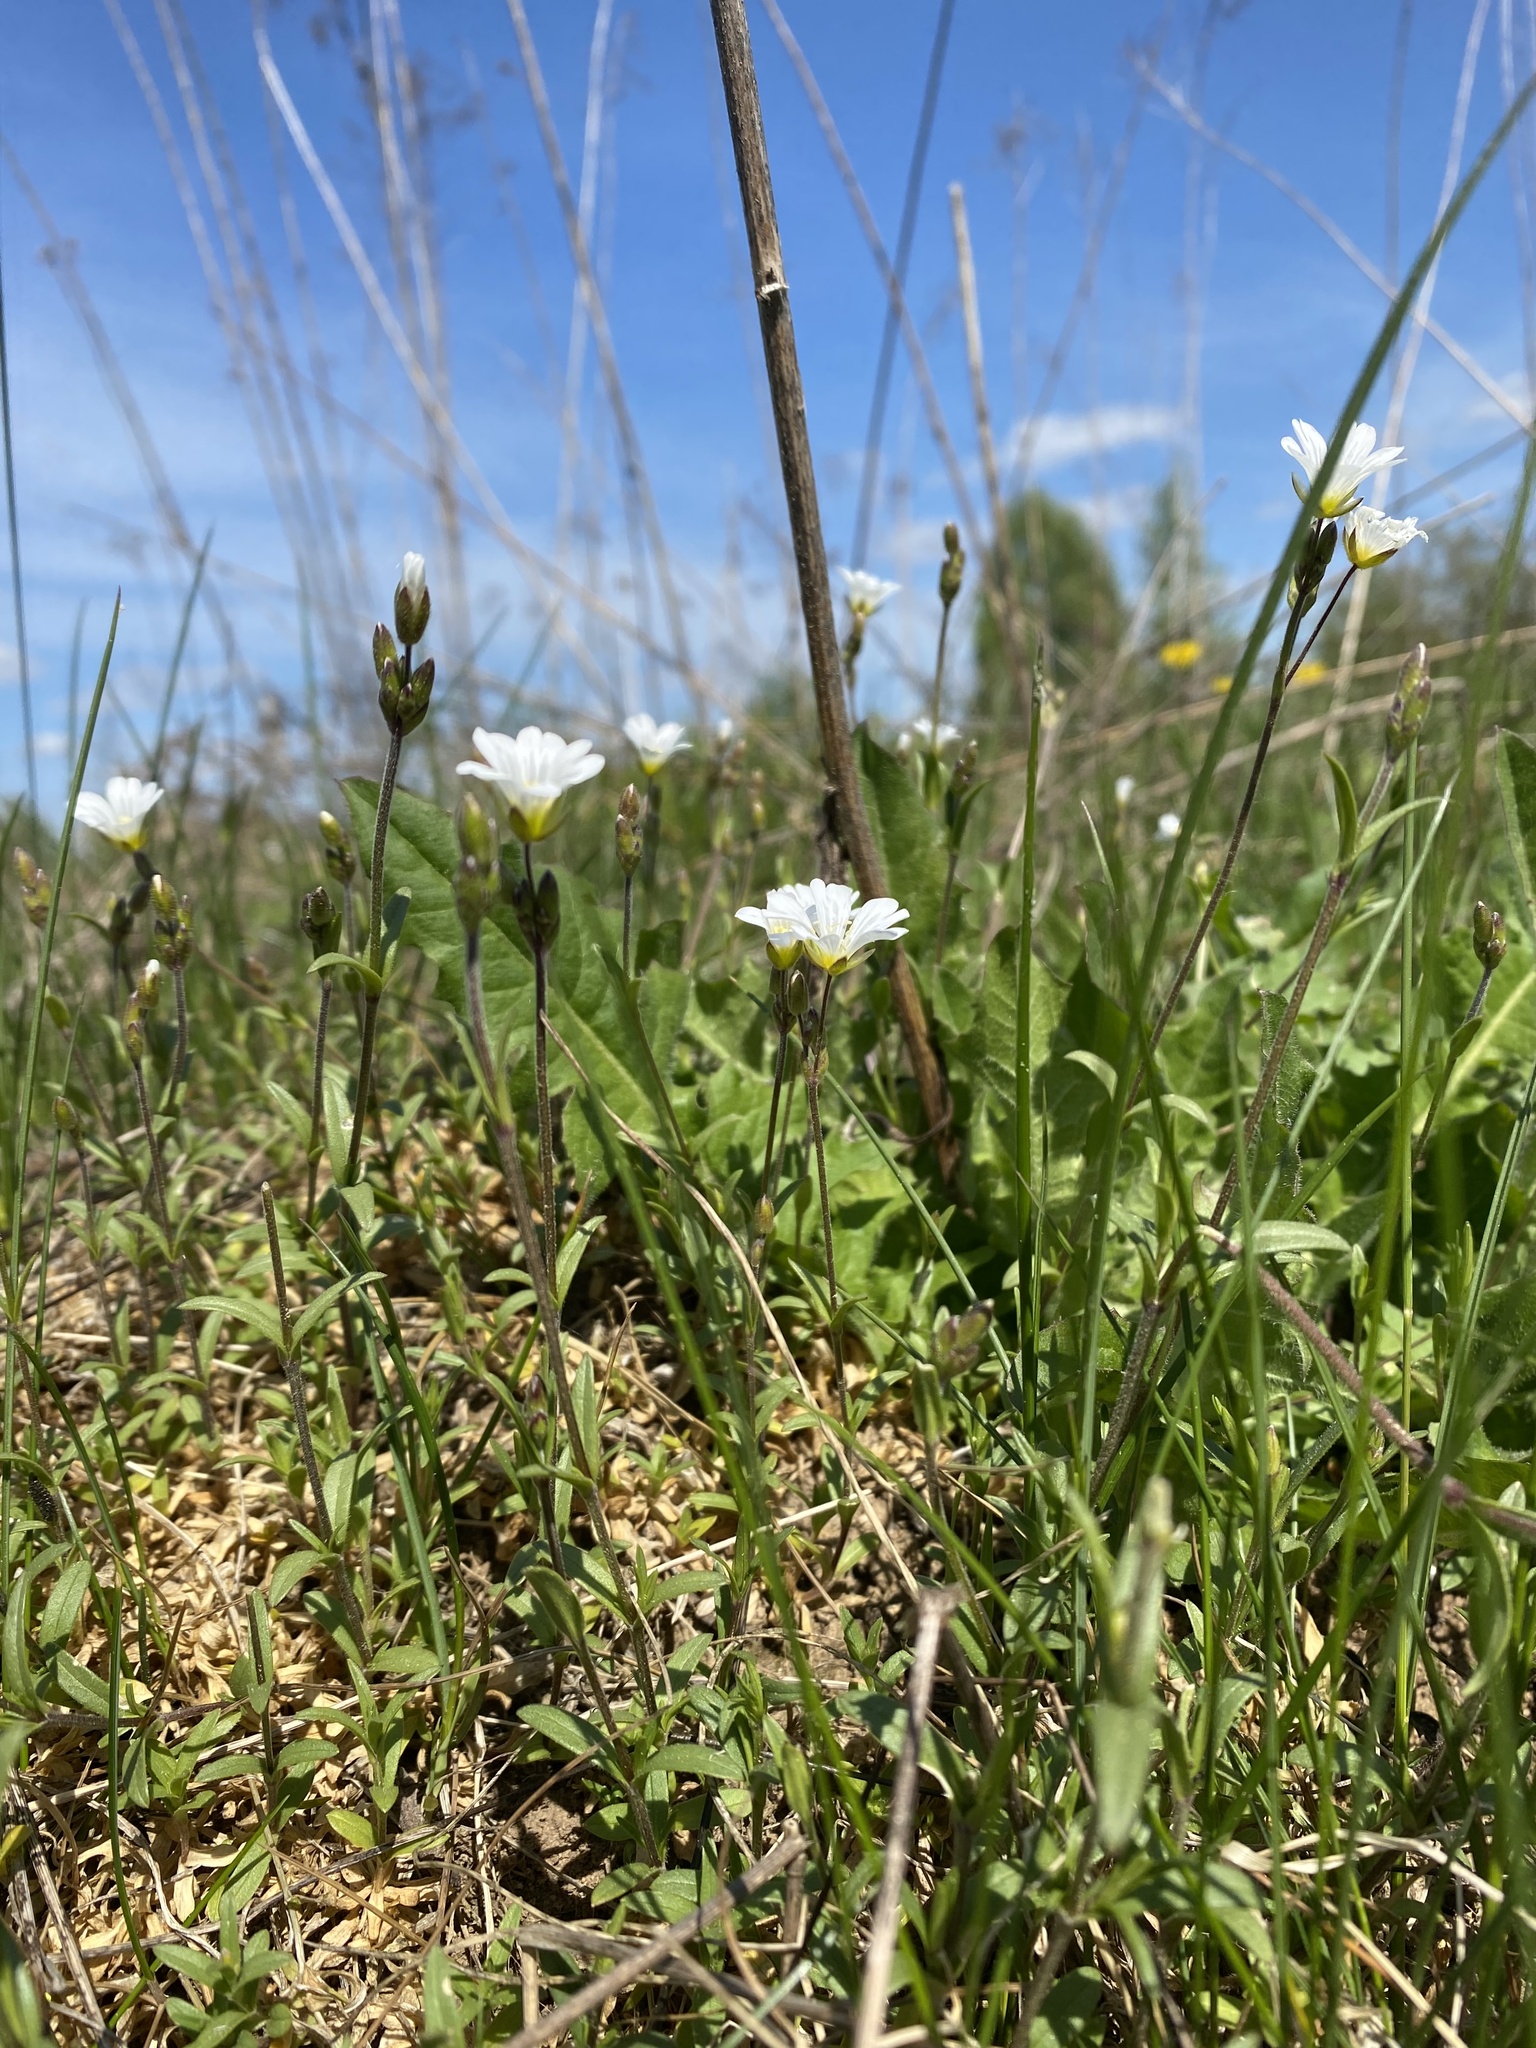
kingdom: Plantae
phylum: Tracheophyta
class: Magnoliopsida
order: Caryophyllales
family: Caryophyllaceae
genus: Cerastium
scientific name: Cerastium arvense
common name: Field mouse-ear
